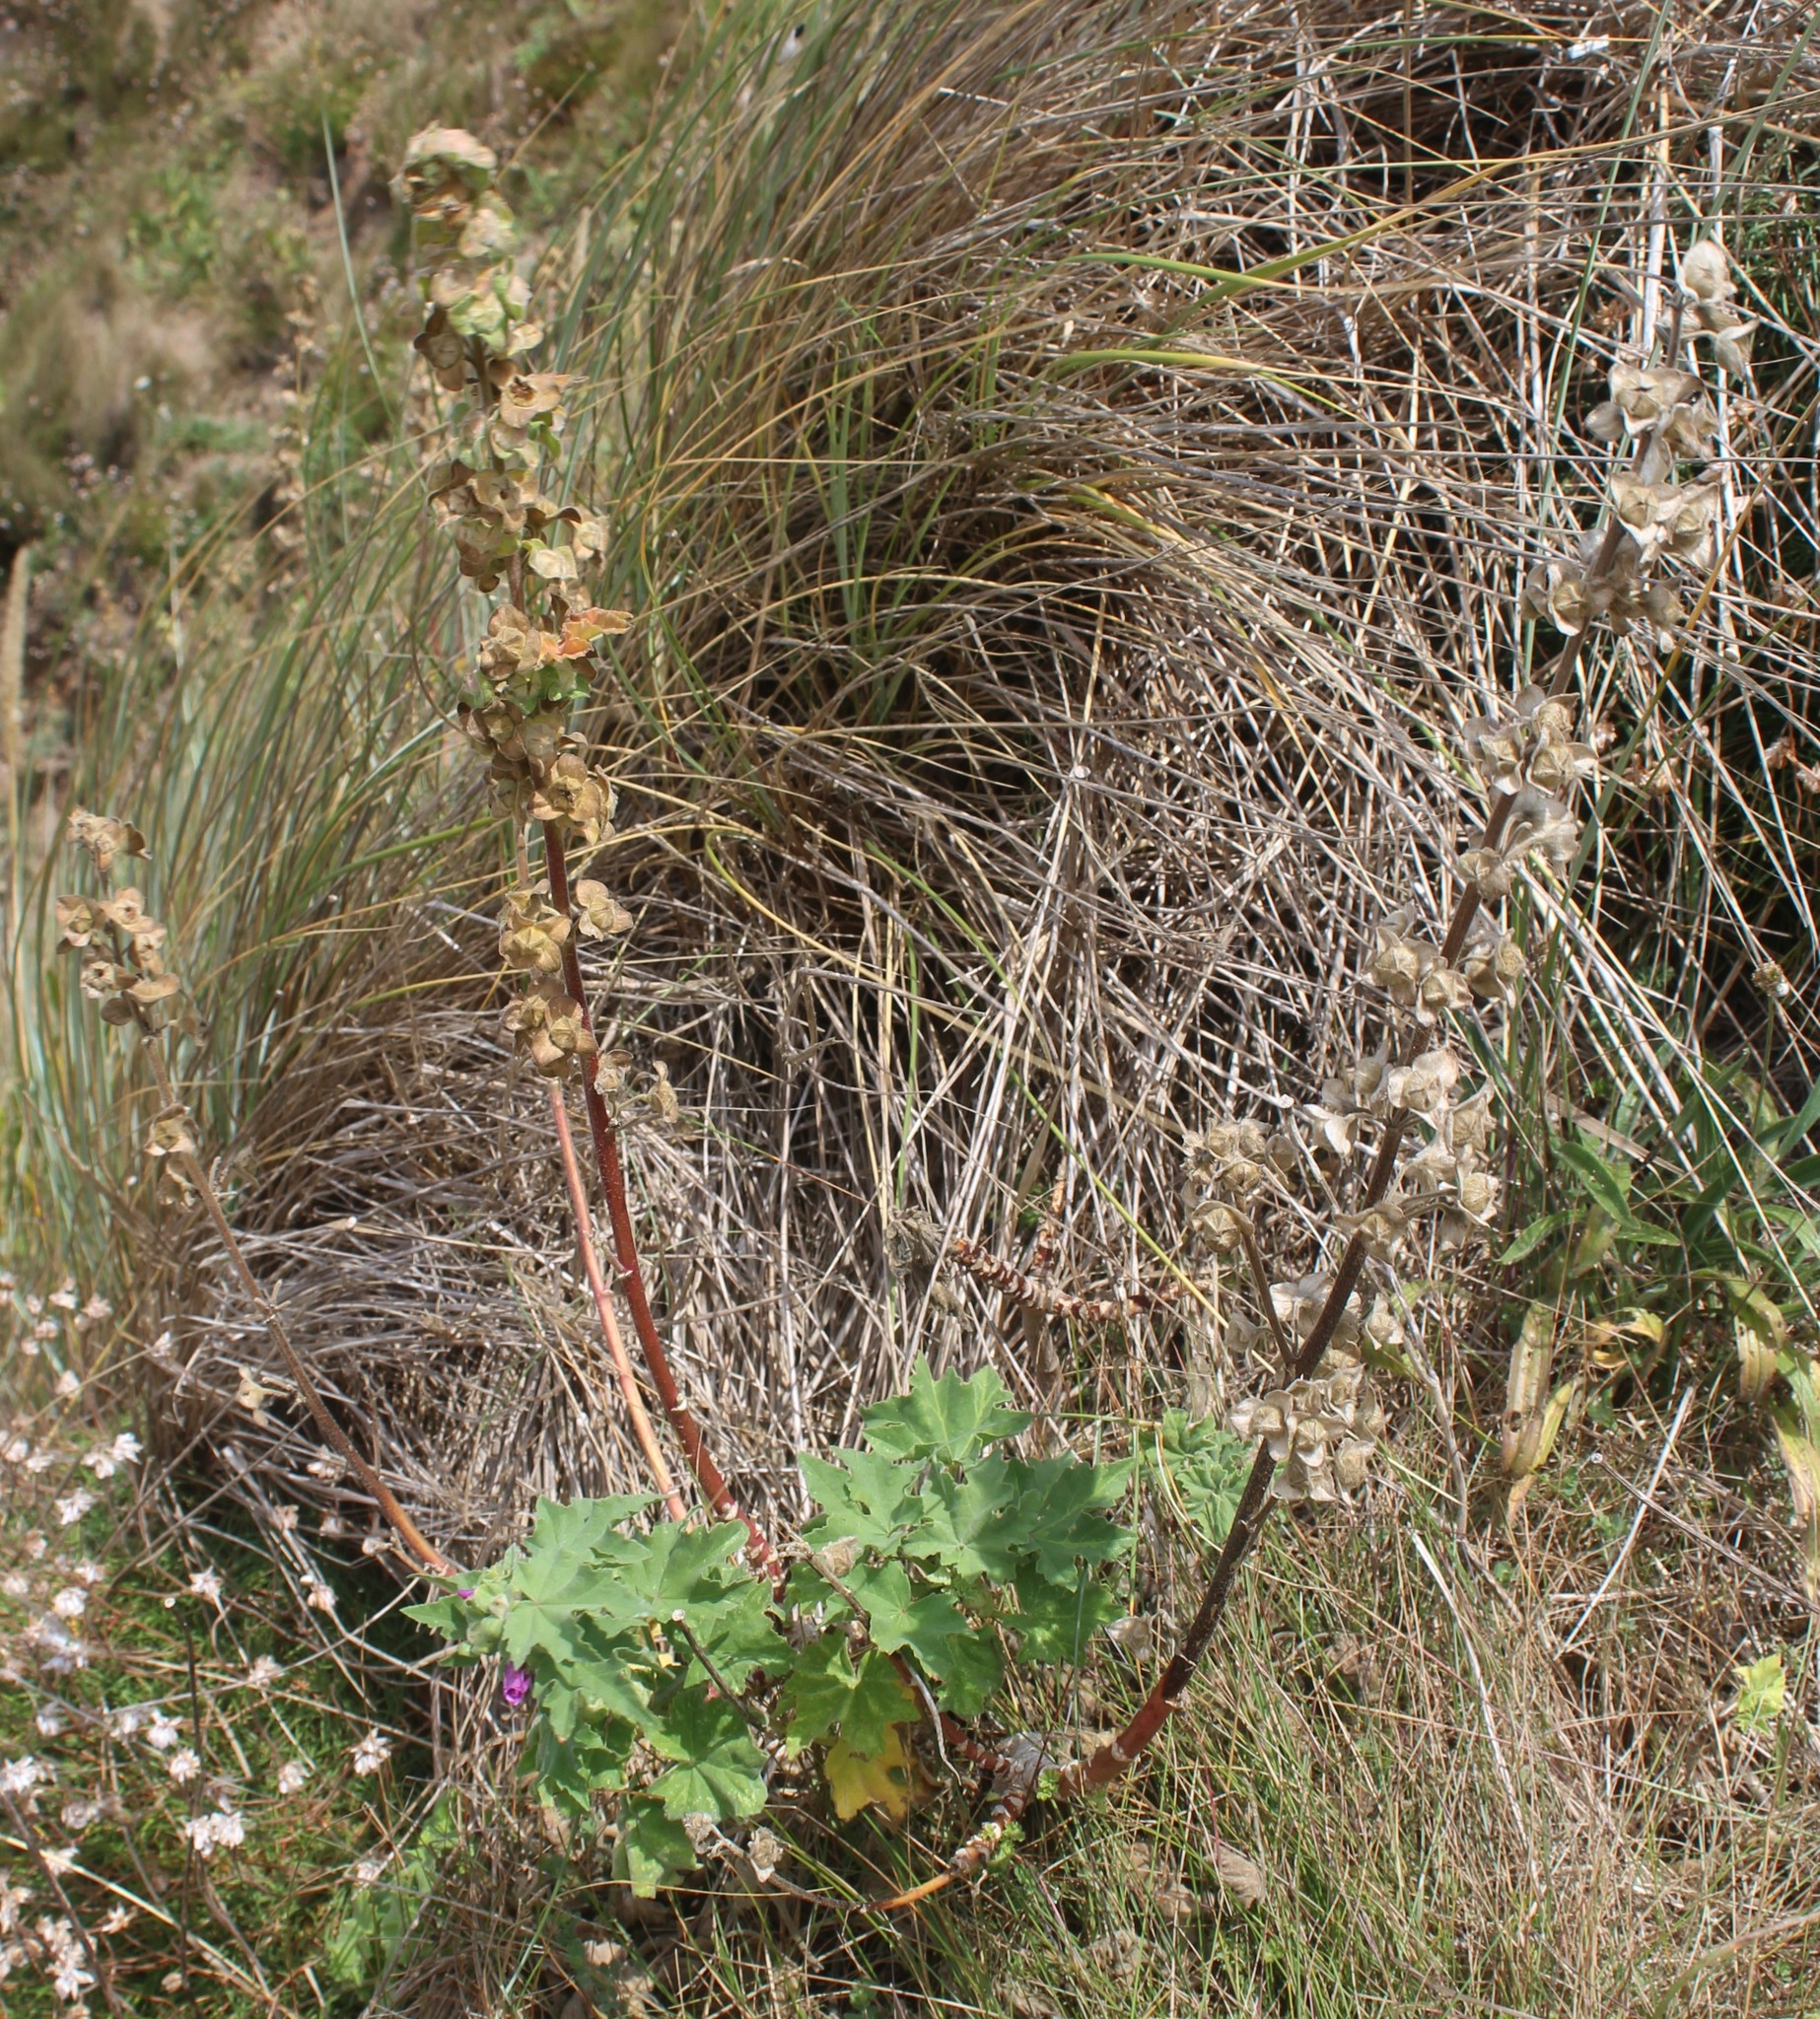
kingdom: Plantae
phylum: Tracheophyta
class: Magnoliopsida
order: Malvales
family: Malvaceae
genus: Malva
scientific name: Malva arborea
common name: Tree mallow
